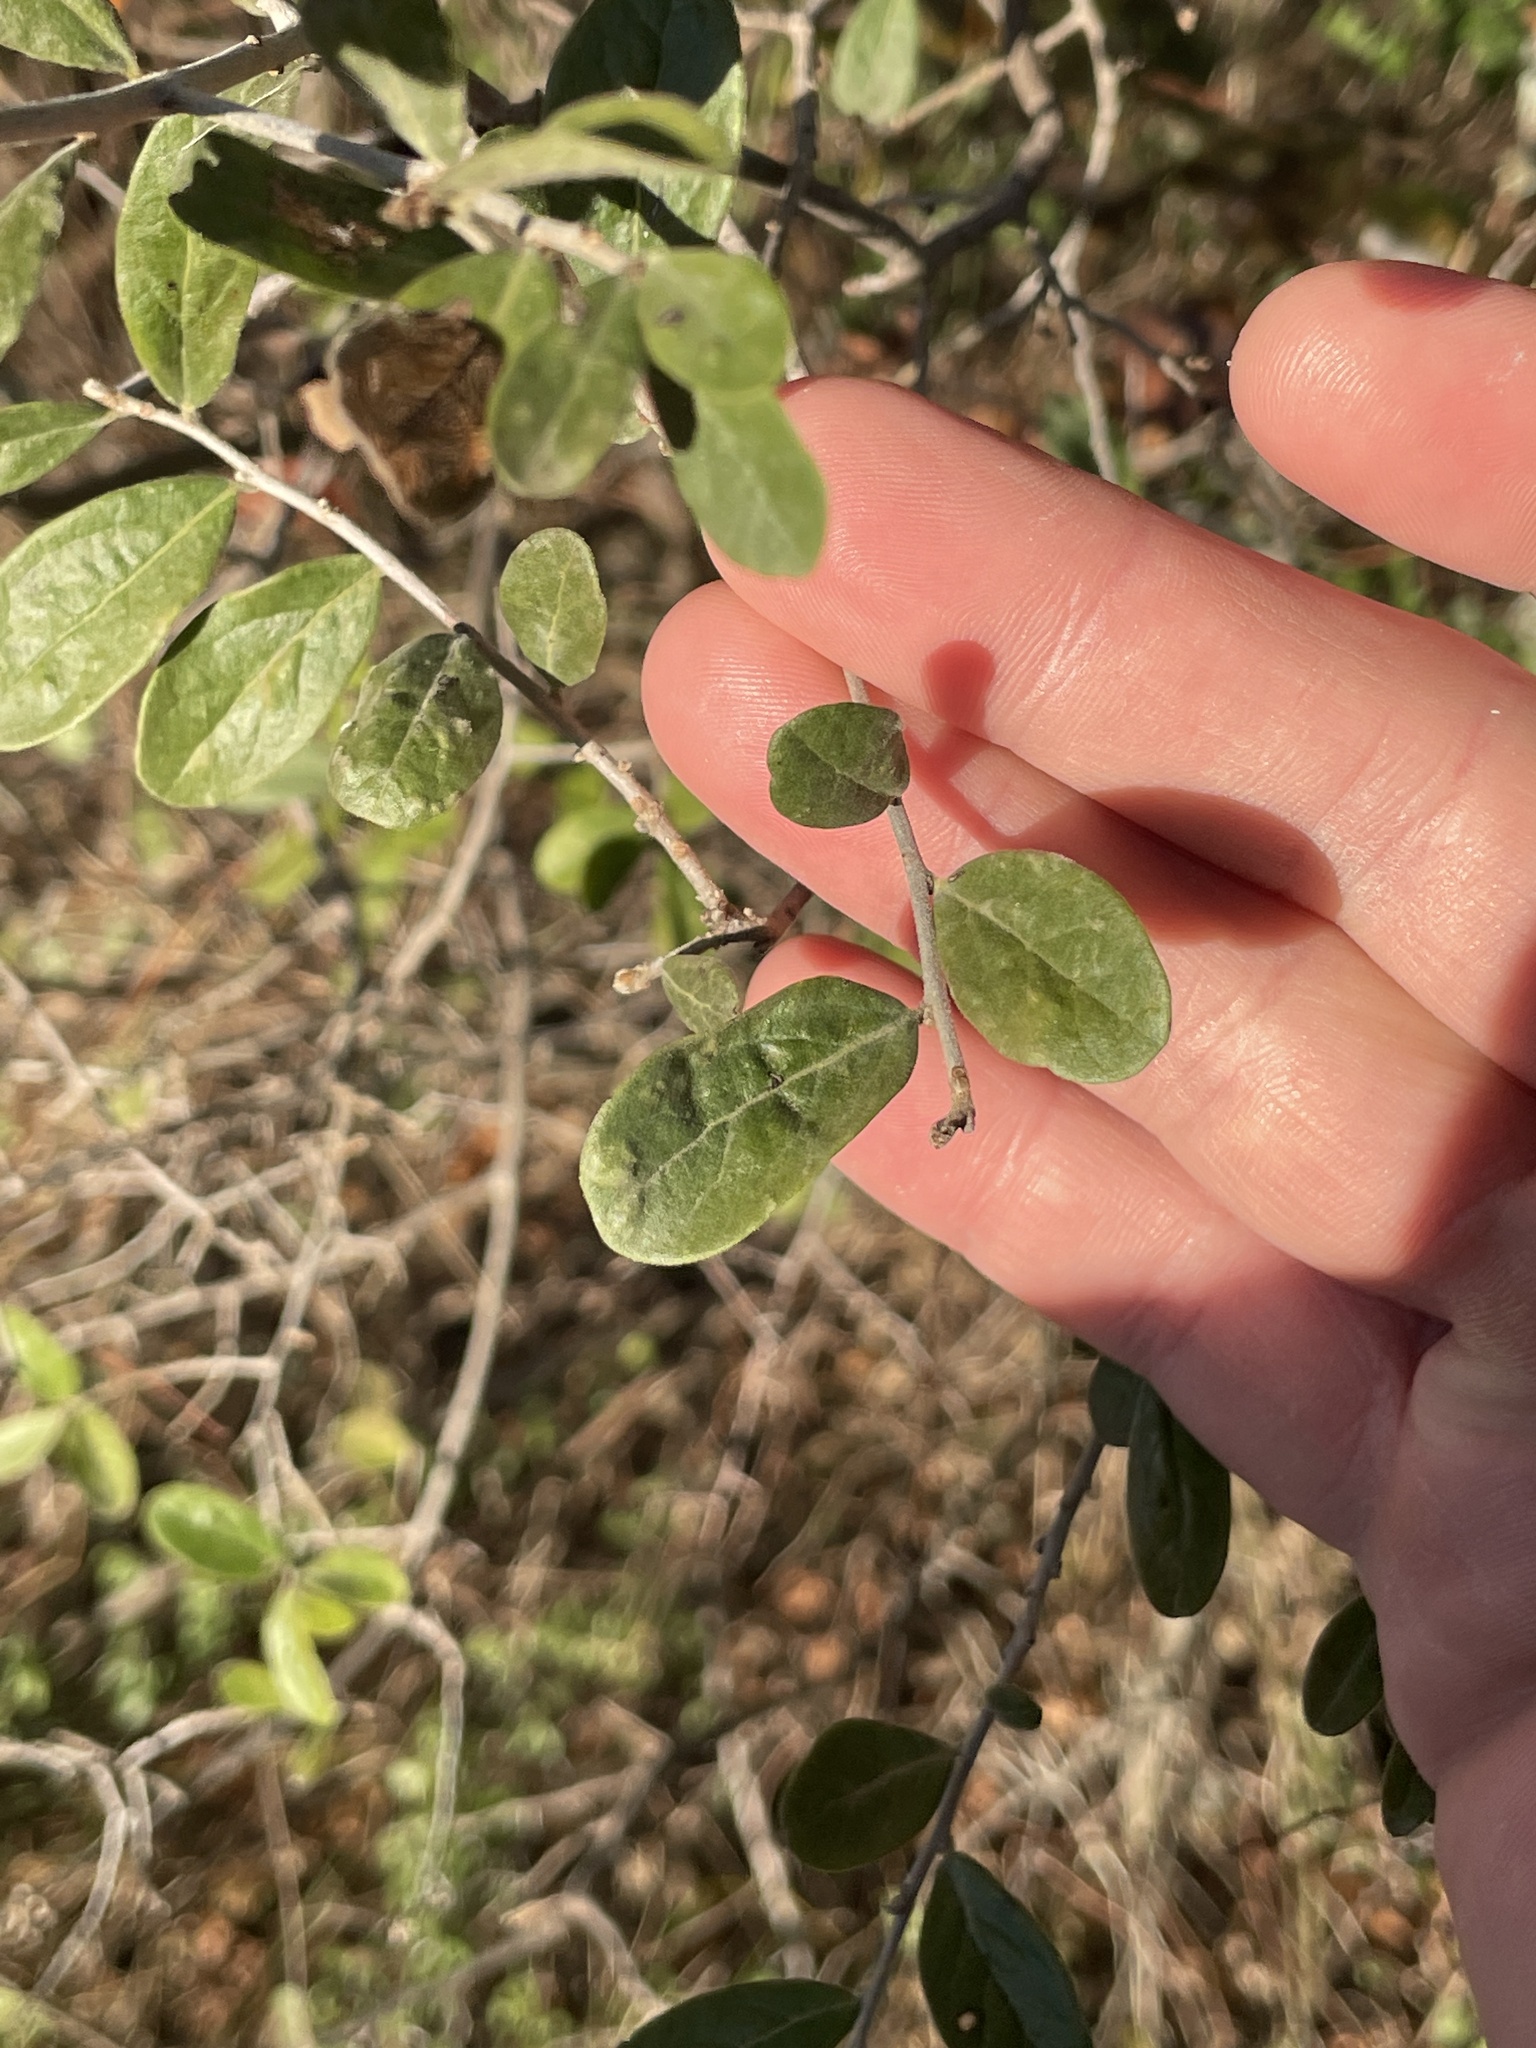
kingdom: Plantae
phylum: Tracheophyta
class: Magnoliopsida
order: Ericales
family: Ebenaceae
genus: Diospyros
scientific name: Diospyros texana
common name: Texas persimmon
